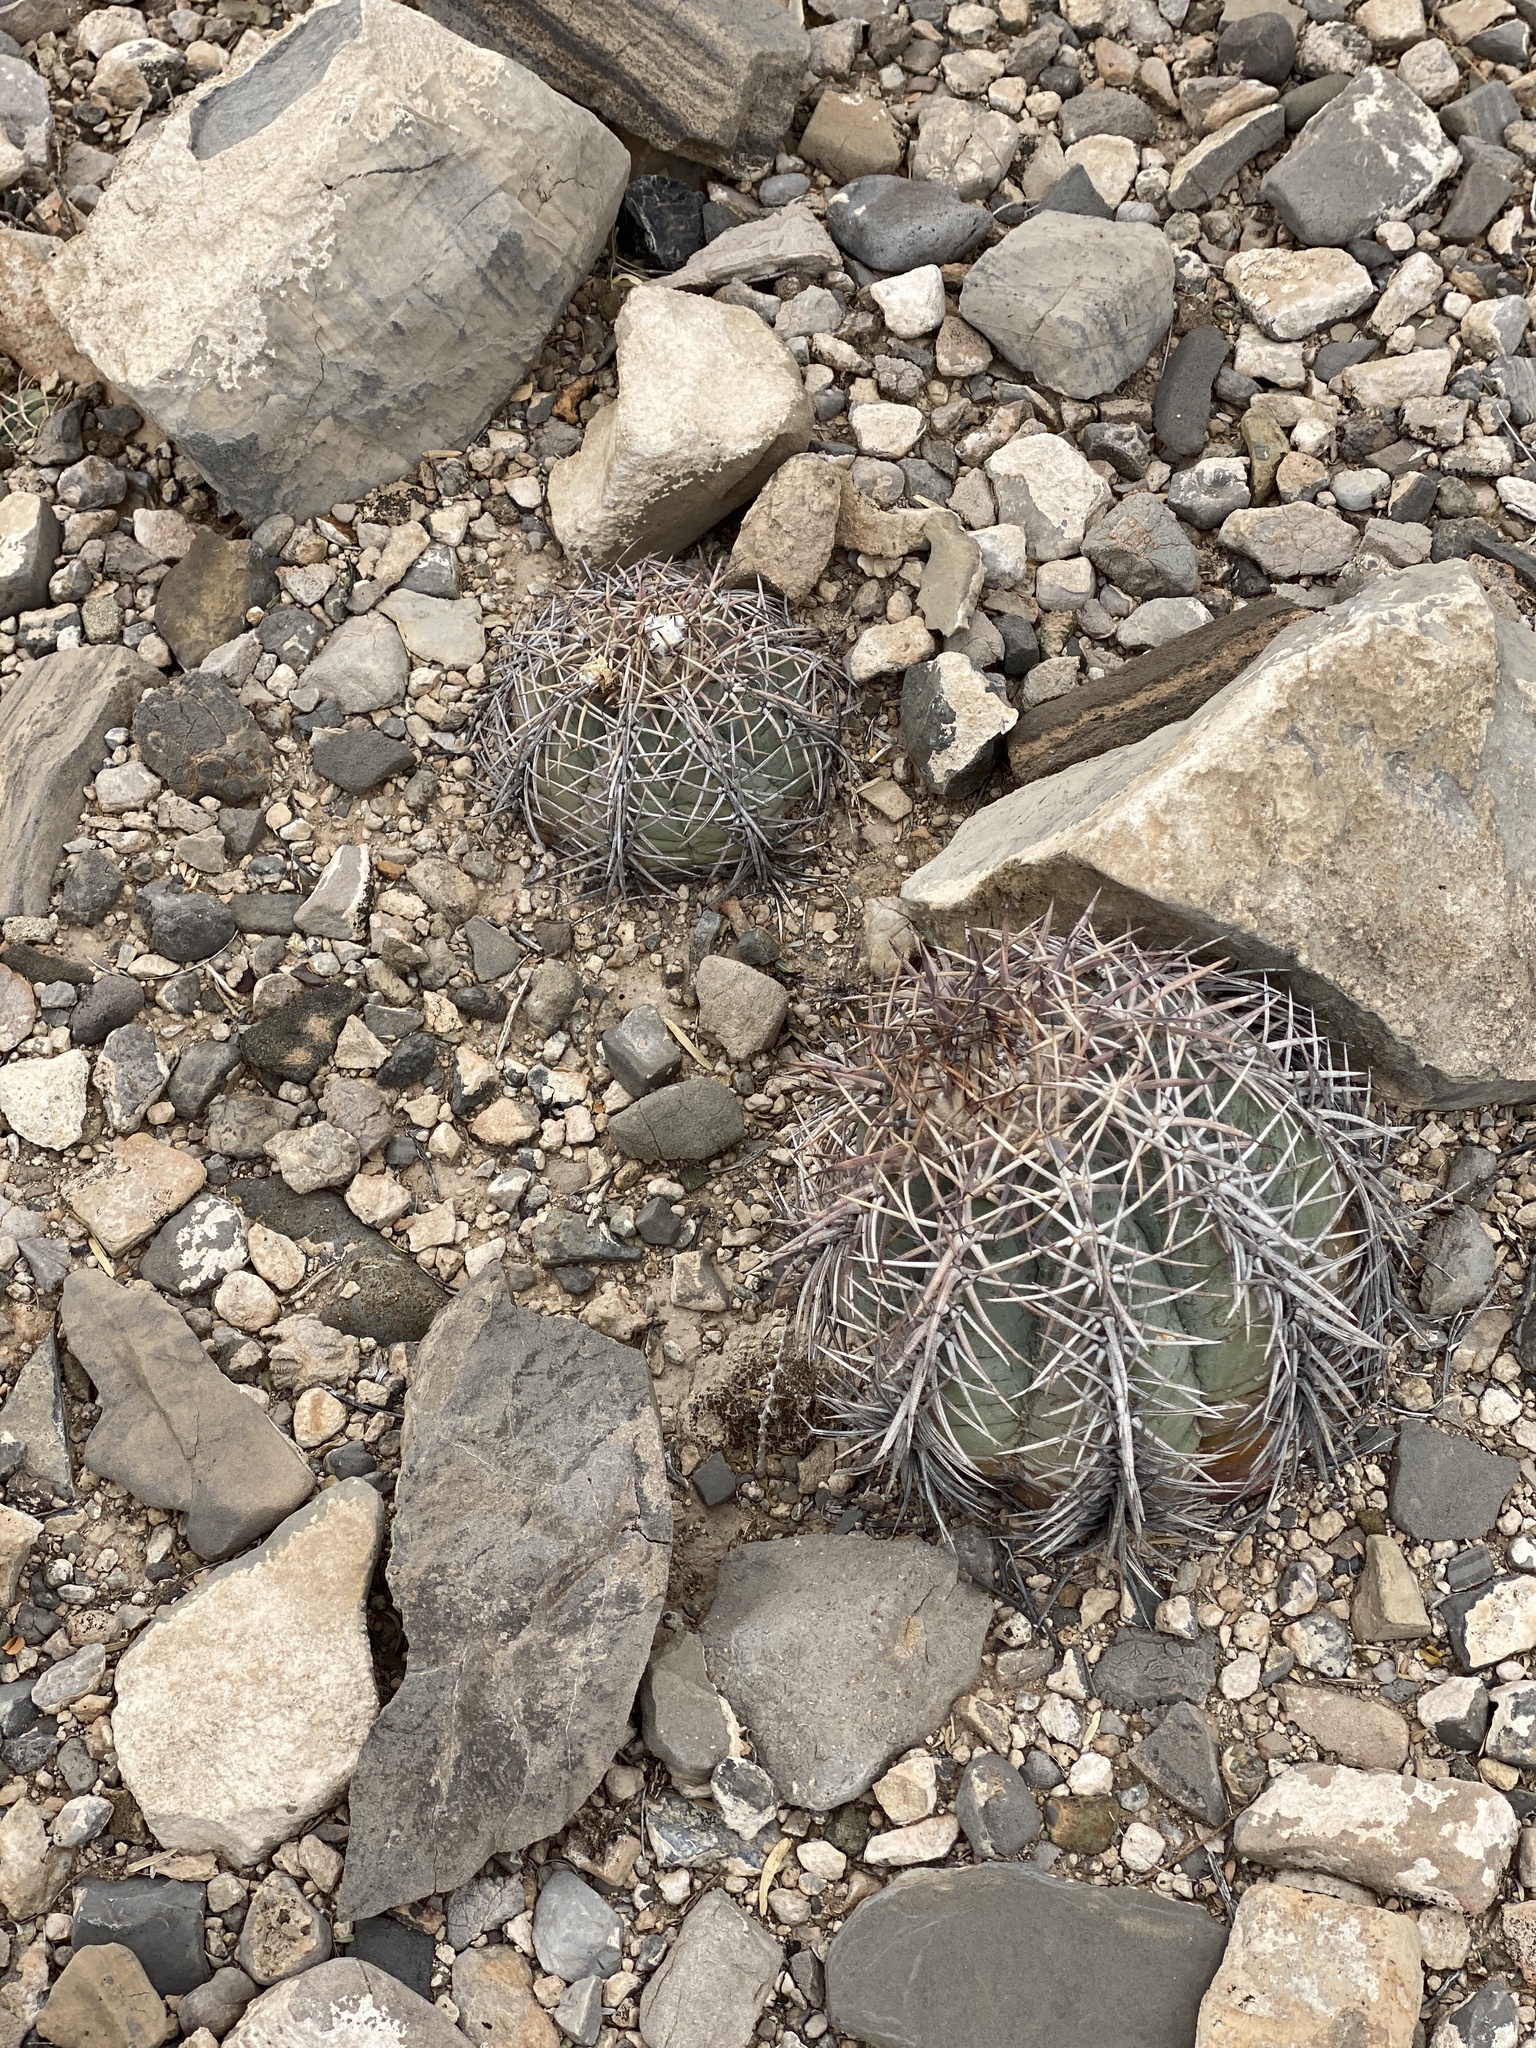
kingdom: Plantae
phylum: Tracheophyta
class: Magnoliopsida
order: Caryophyllales
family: Cactaceae
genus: Echinocactus
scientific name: Echinocactus horizonthalonius
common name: Devilshead
